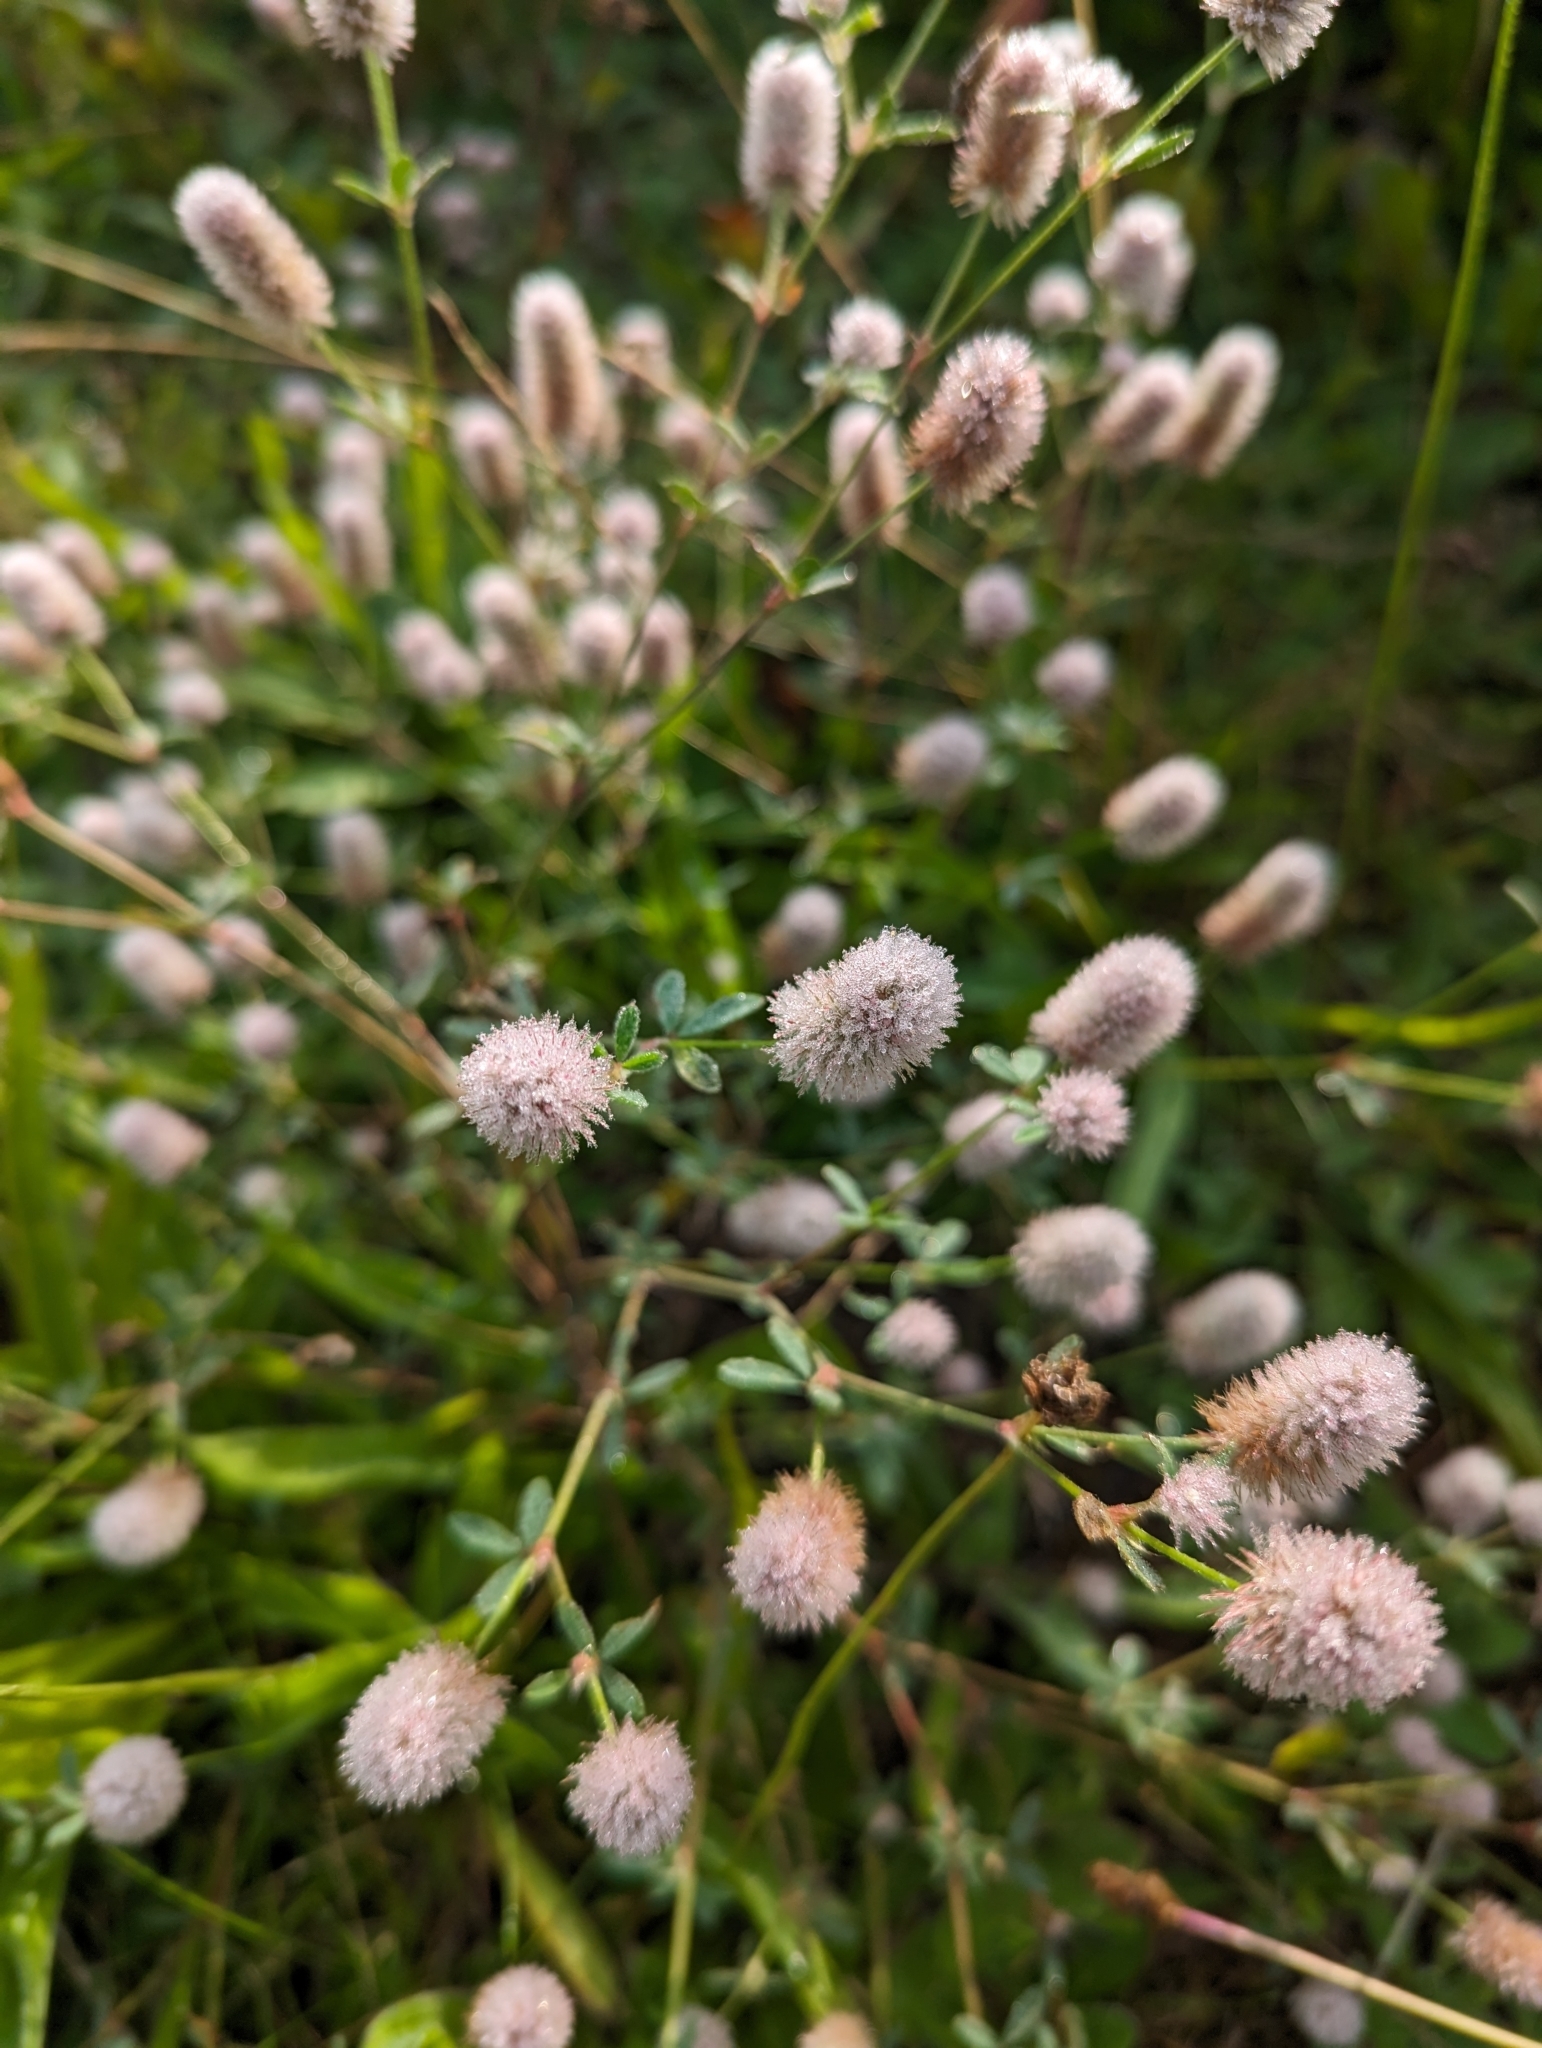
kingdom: Plantae
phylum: Tracheophyta
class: Magnoliopsida
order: Fabales
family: Fabaceae
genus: Trifolium
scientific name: Trifolium arvense
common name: Hare's-foot clover
